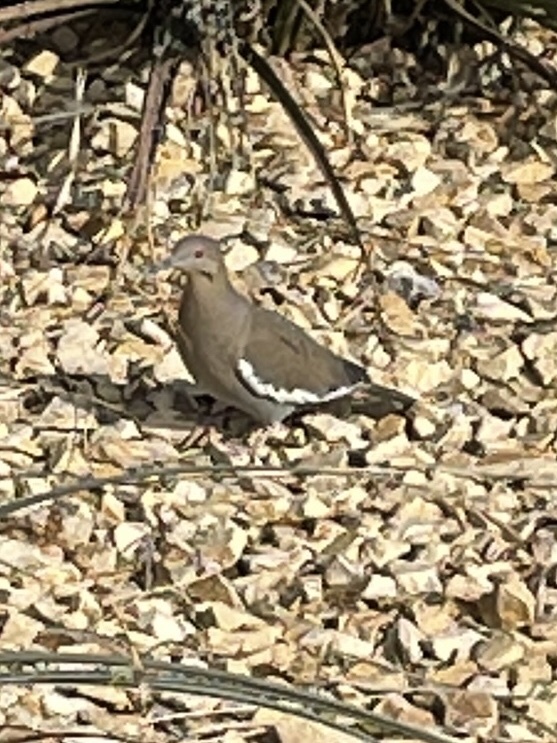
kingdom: Animalia
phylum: Chordata
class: Aves
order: Columbiformes
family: Columbidae
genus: Zenaida
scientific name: Zenaida asiatica
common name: White-winged dove
